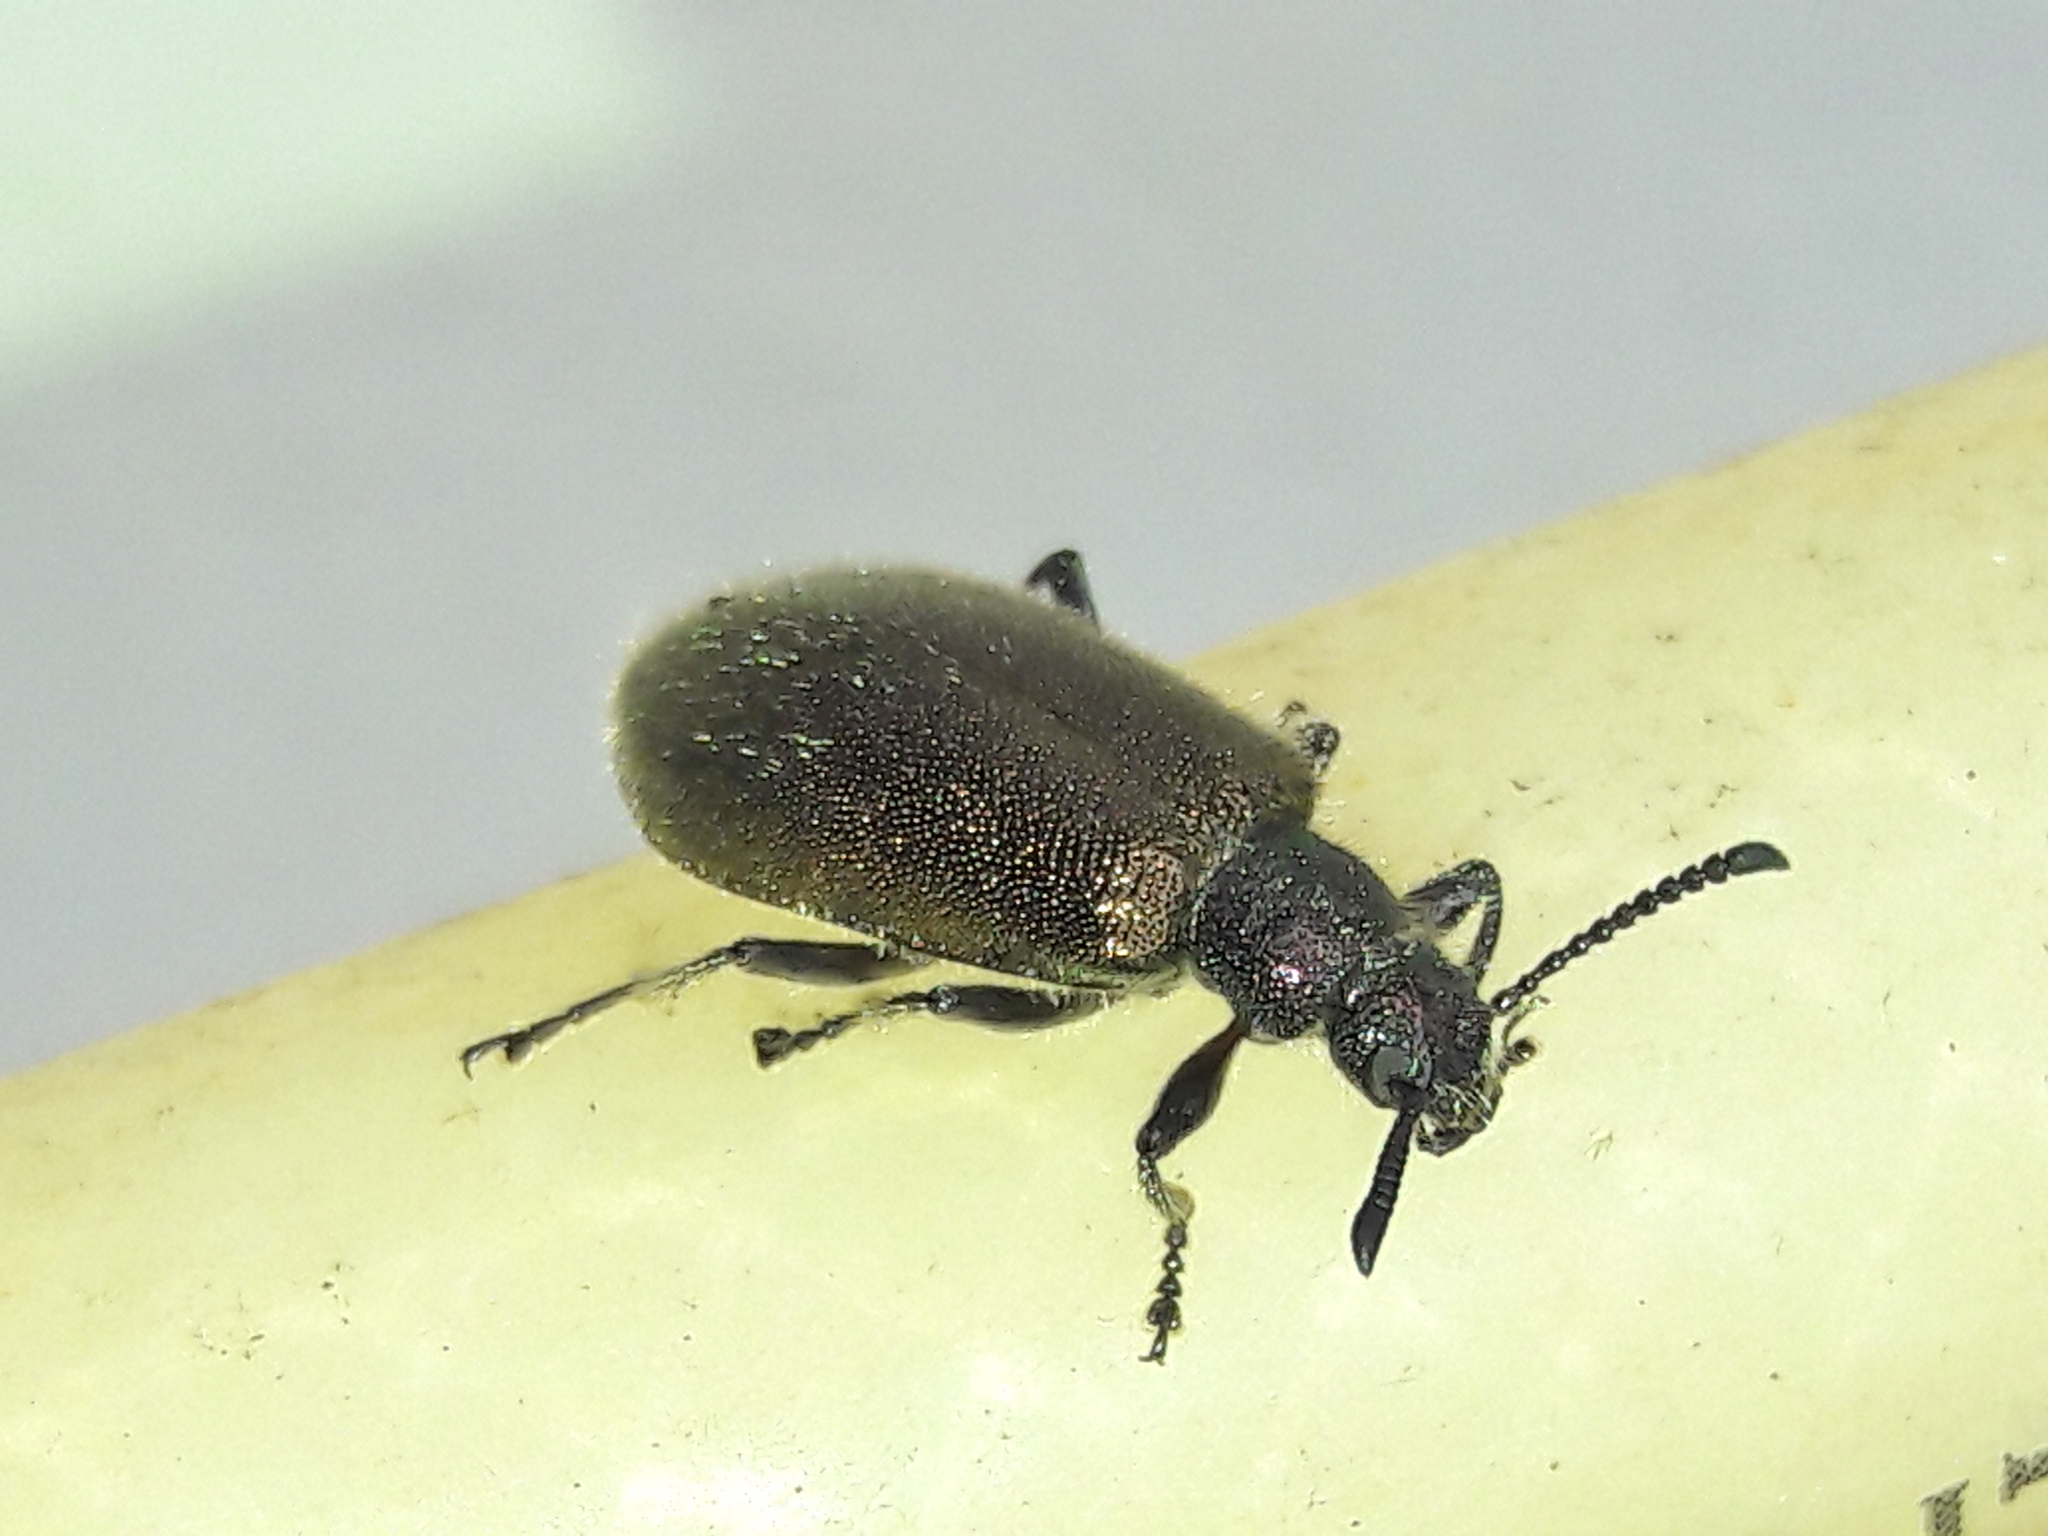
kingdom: Animalia
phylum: Arthropoda
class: Insecta
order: Coleoptera
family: Tenebrionidae
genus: Lagria
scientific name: Lagria villosa
